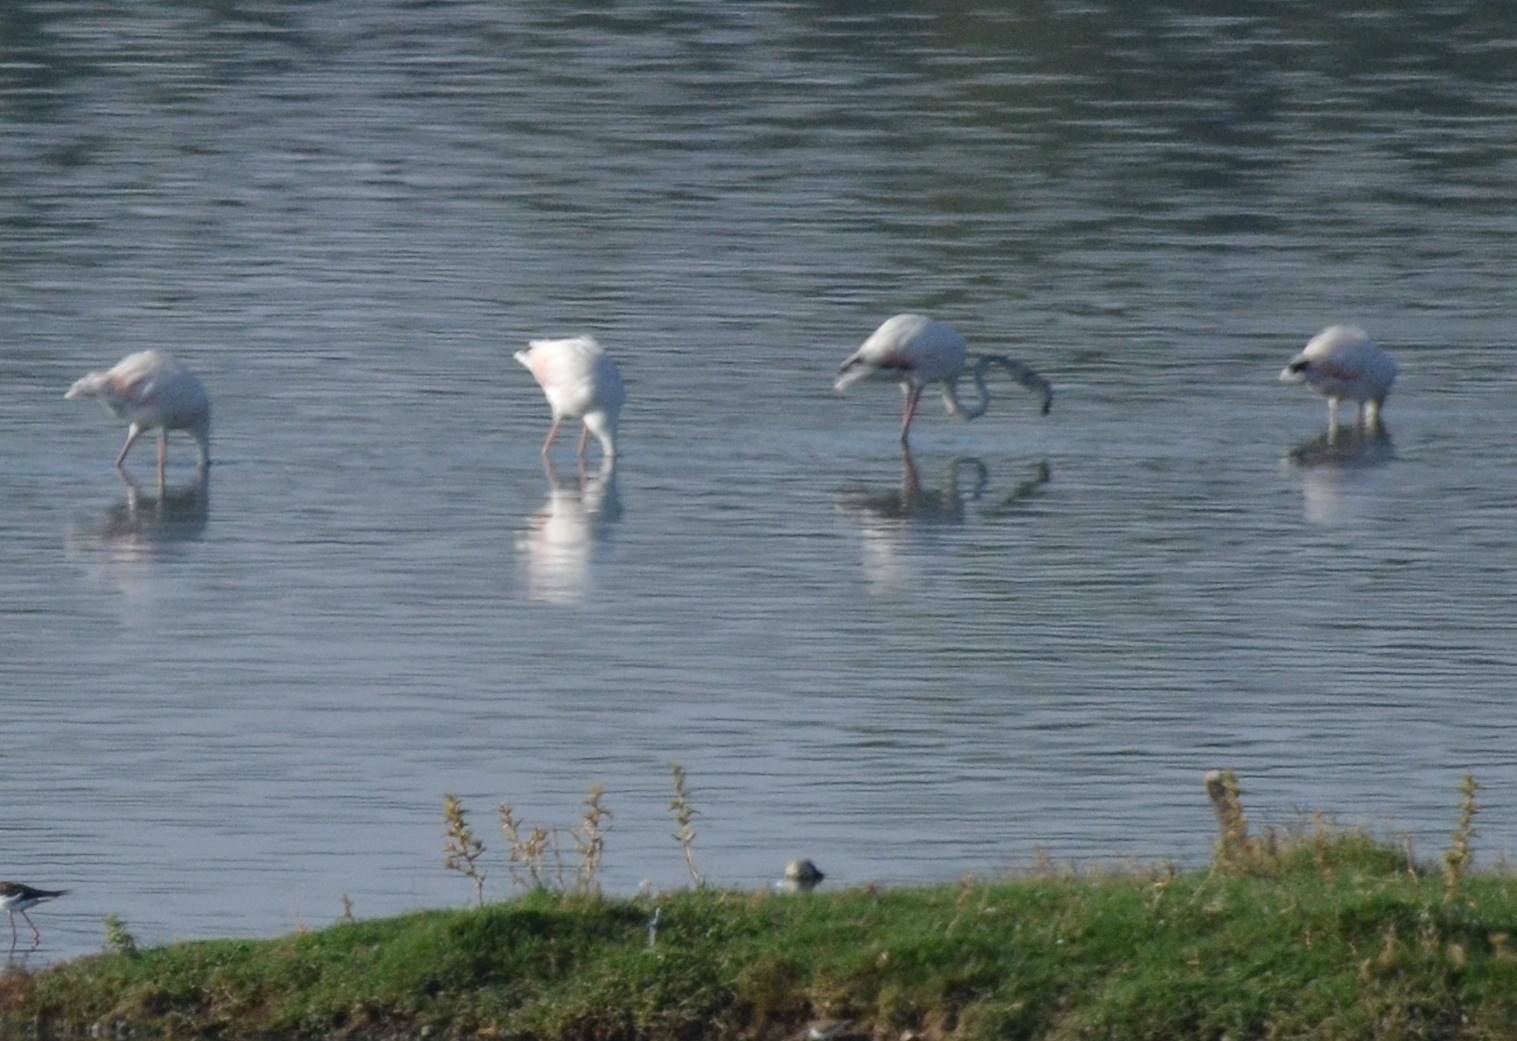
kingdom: Animalia
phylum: Chordata
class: Aves
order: Phoenicopteriformes
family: Phoenicopteridae
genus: Phoenicopterus
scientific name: Phoenicopterus roseus
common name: Greater flamingo
